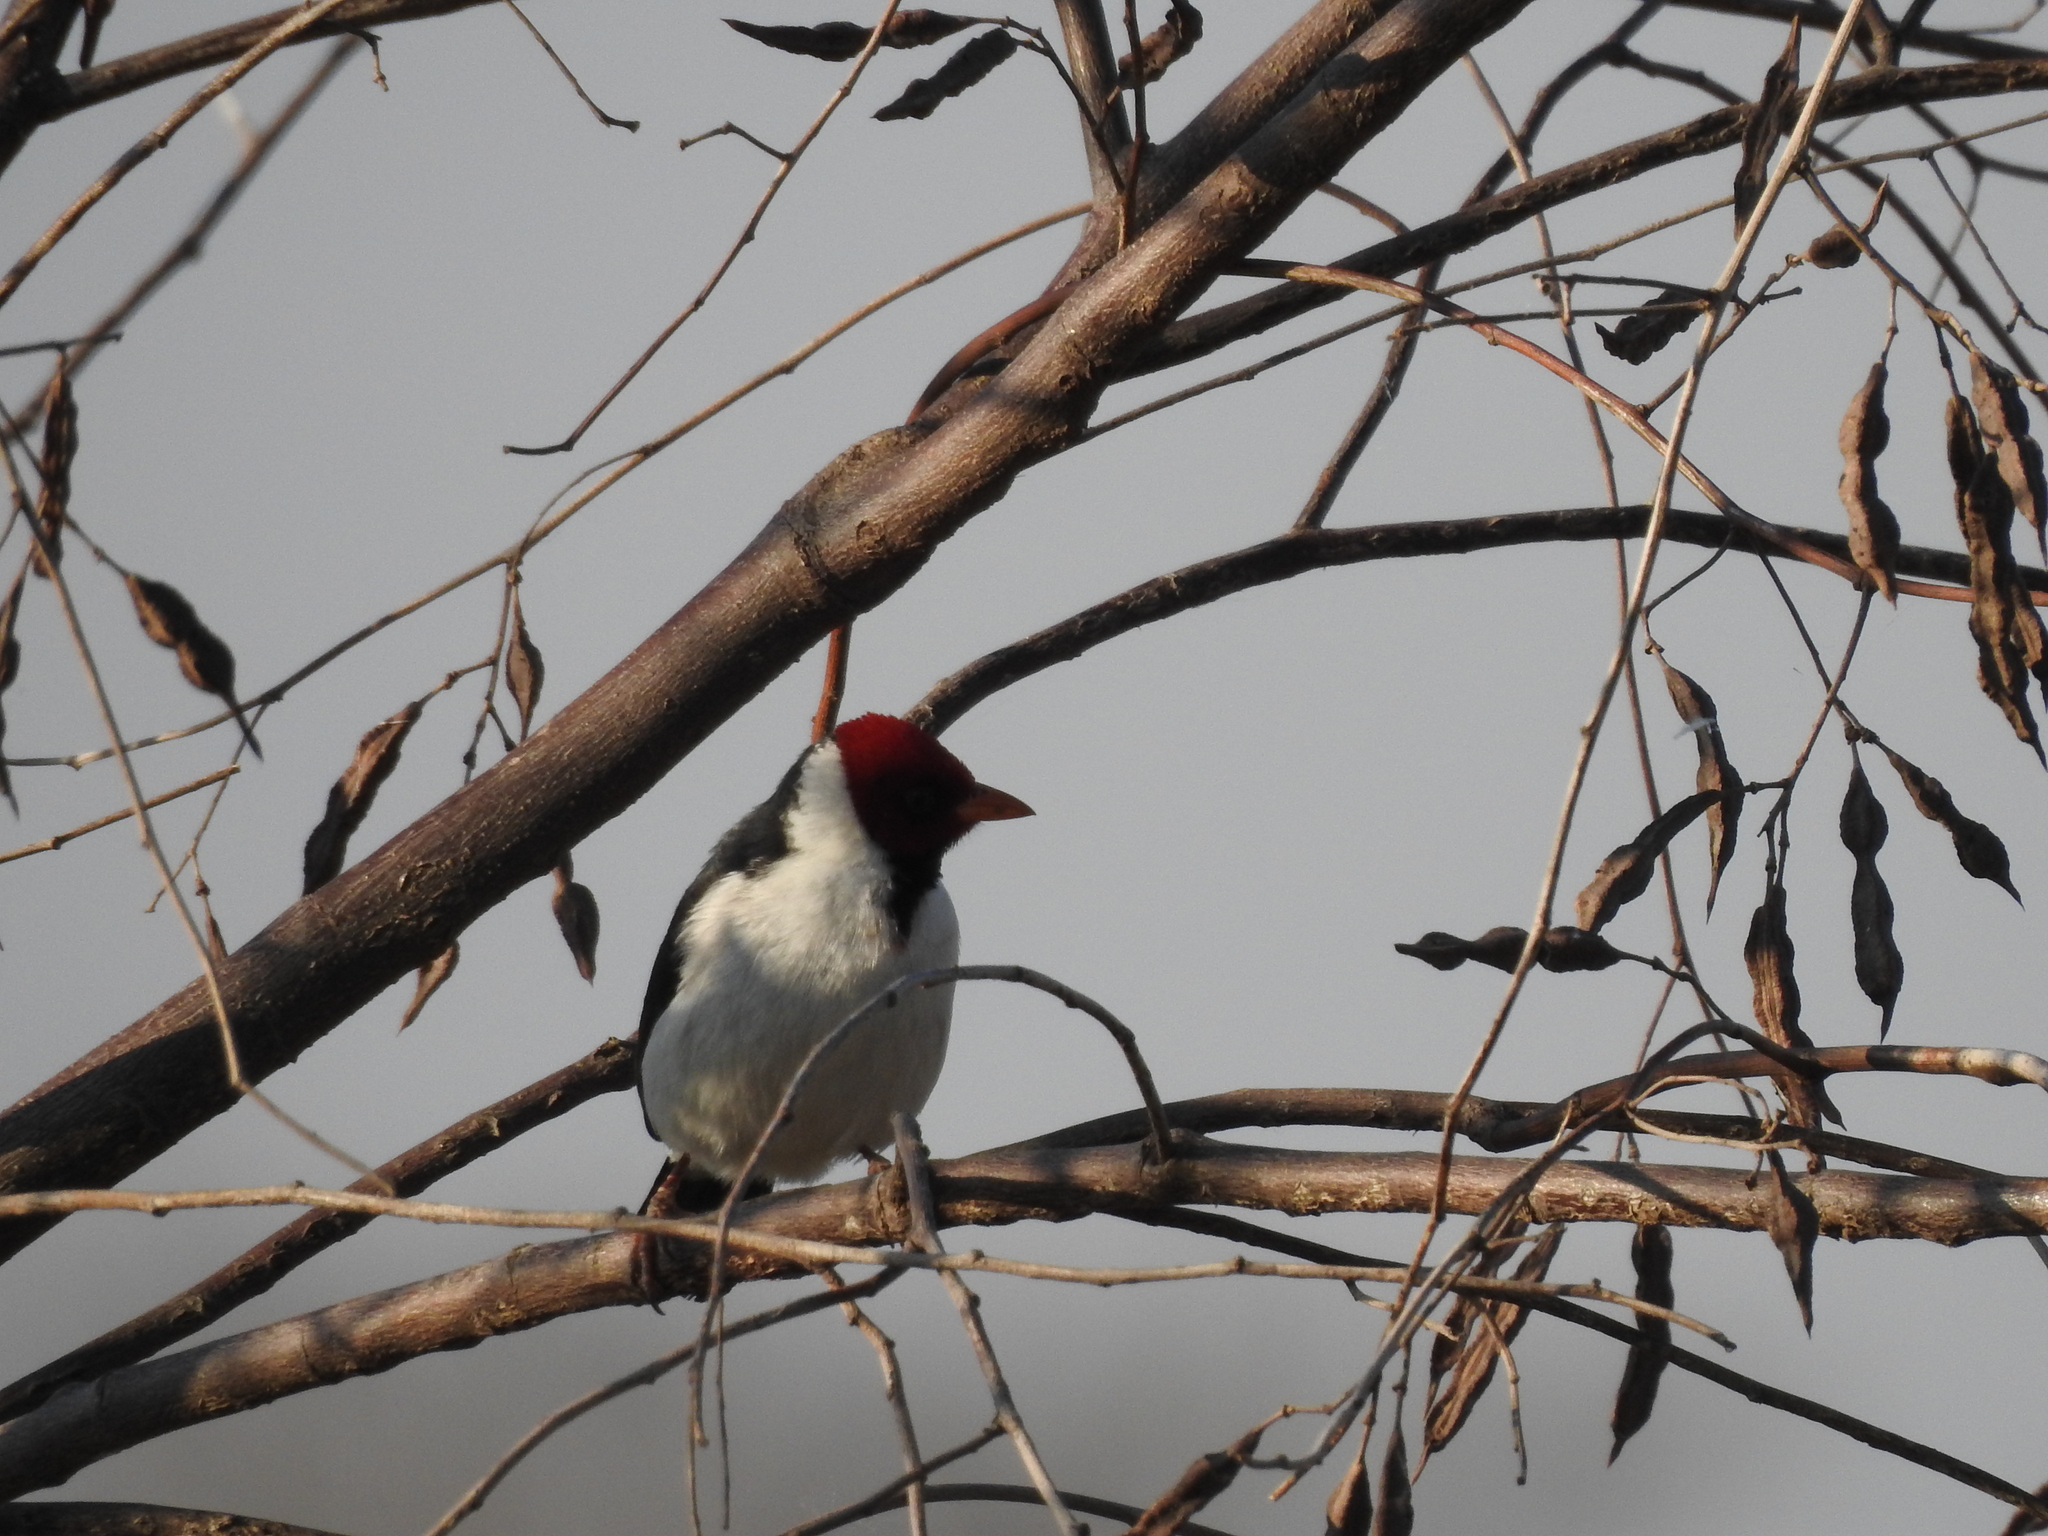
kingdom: Animalia
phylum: Chordata
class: Aves
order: Passeriformes
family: Thraupidae
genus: Paroaria
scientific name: Paroaria capitata
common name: Yellow-billed cardinal
